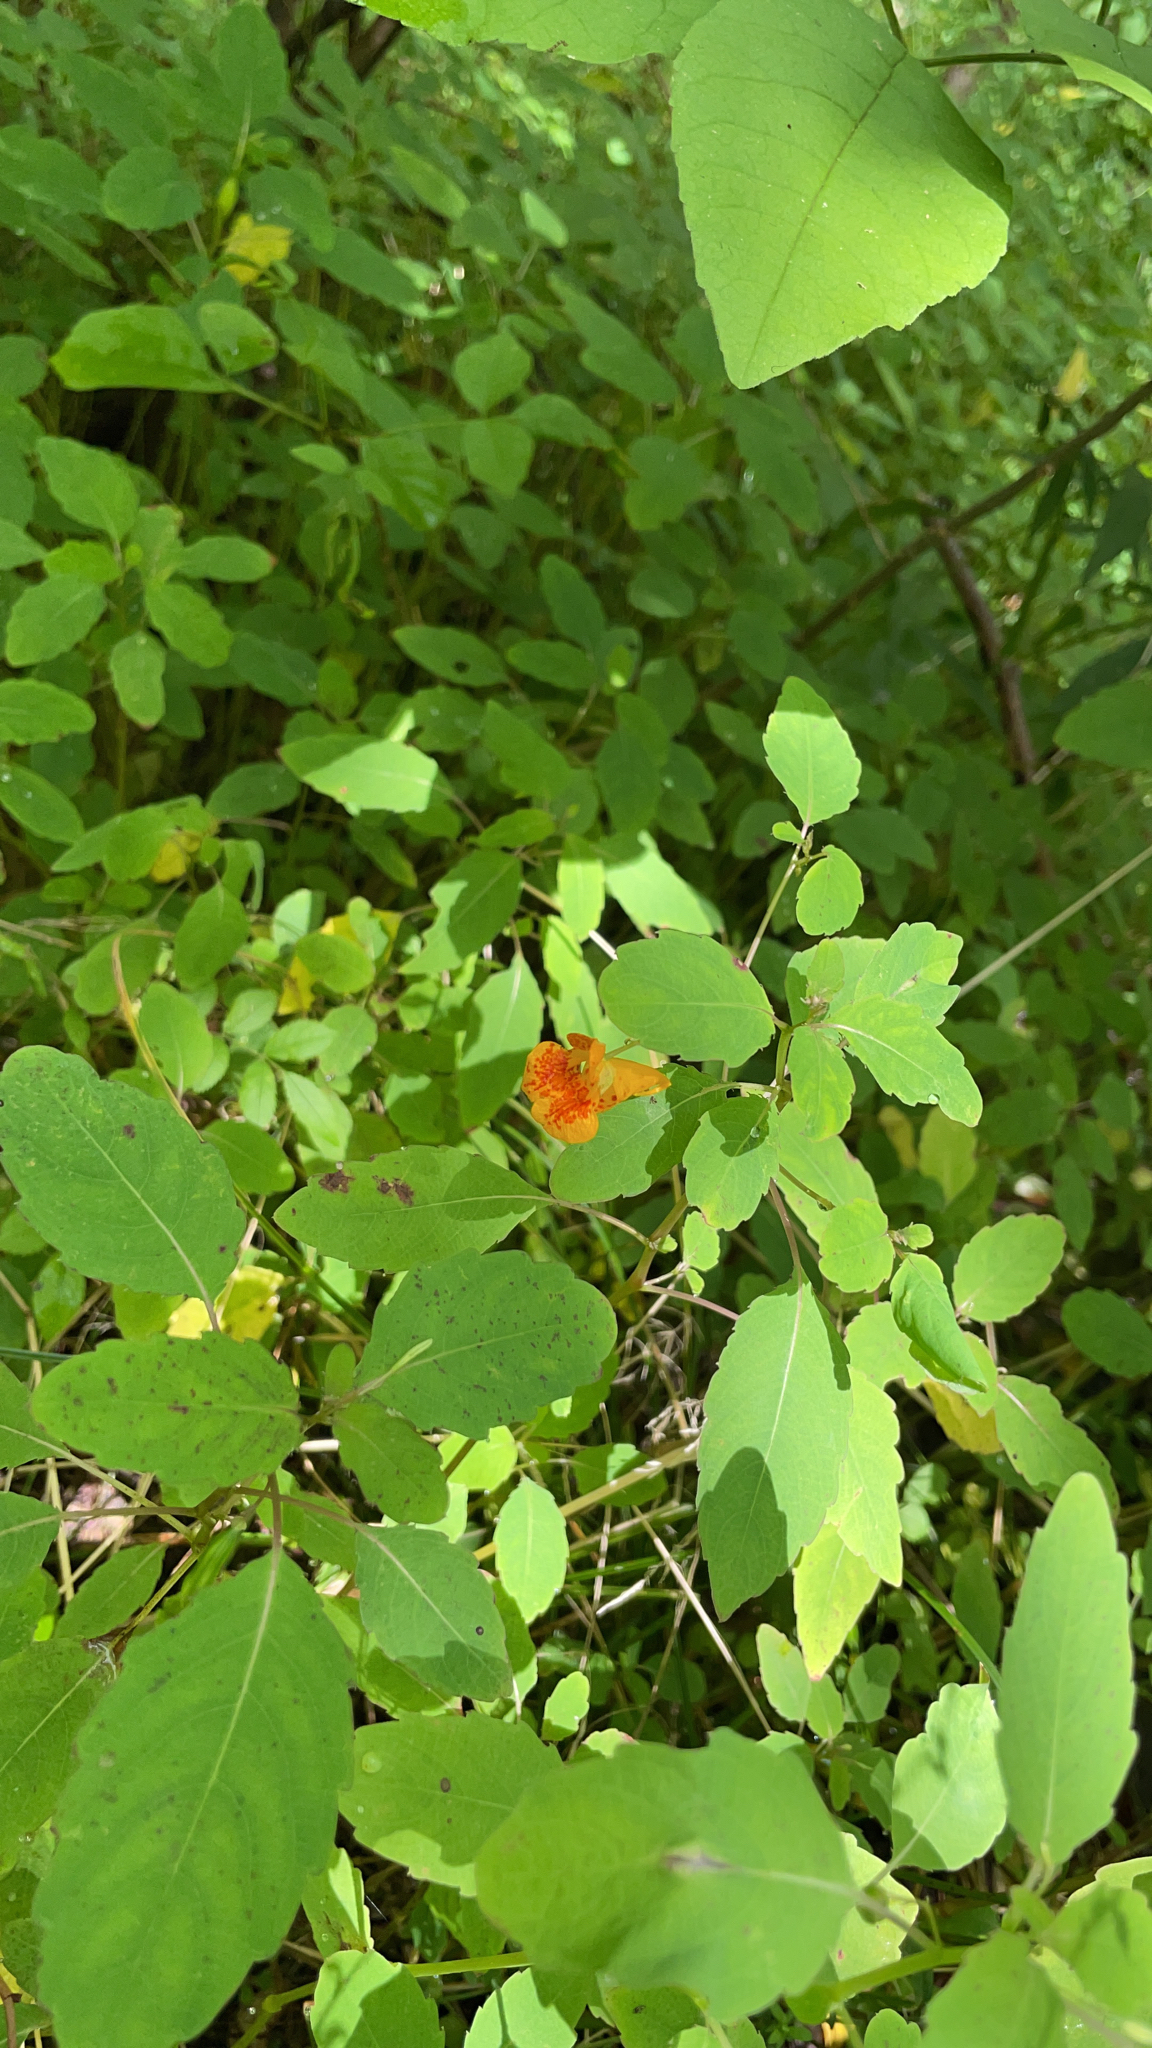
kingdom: Plantae
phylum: Tracheophyta
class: Magnoliopsida
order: Ericales
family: Balsaminaceae
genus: Impatiens
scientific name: Impatiens capensis
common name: Orange balsam
